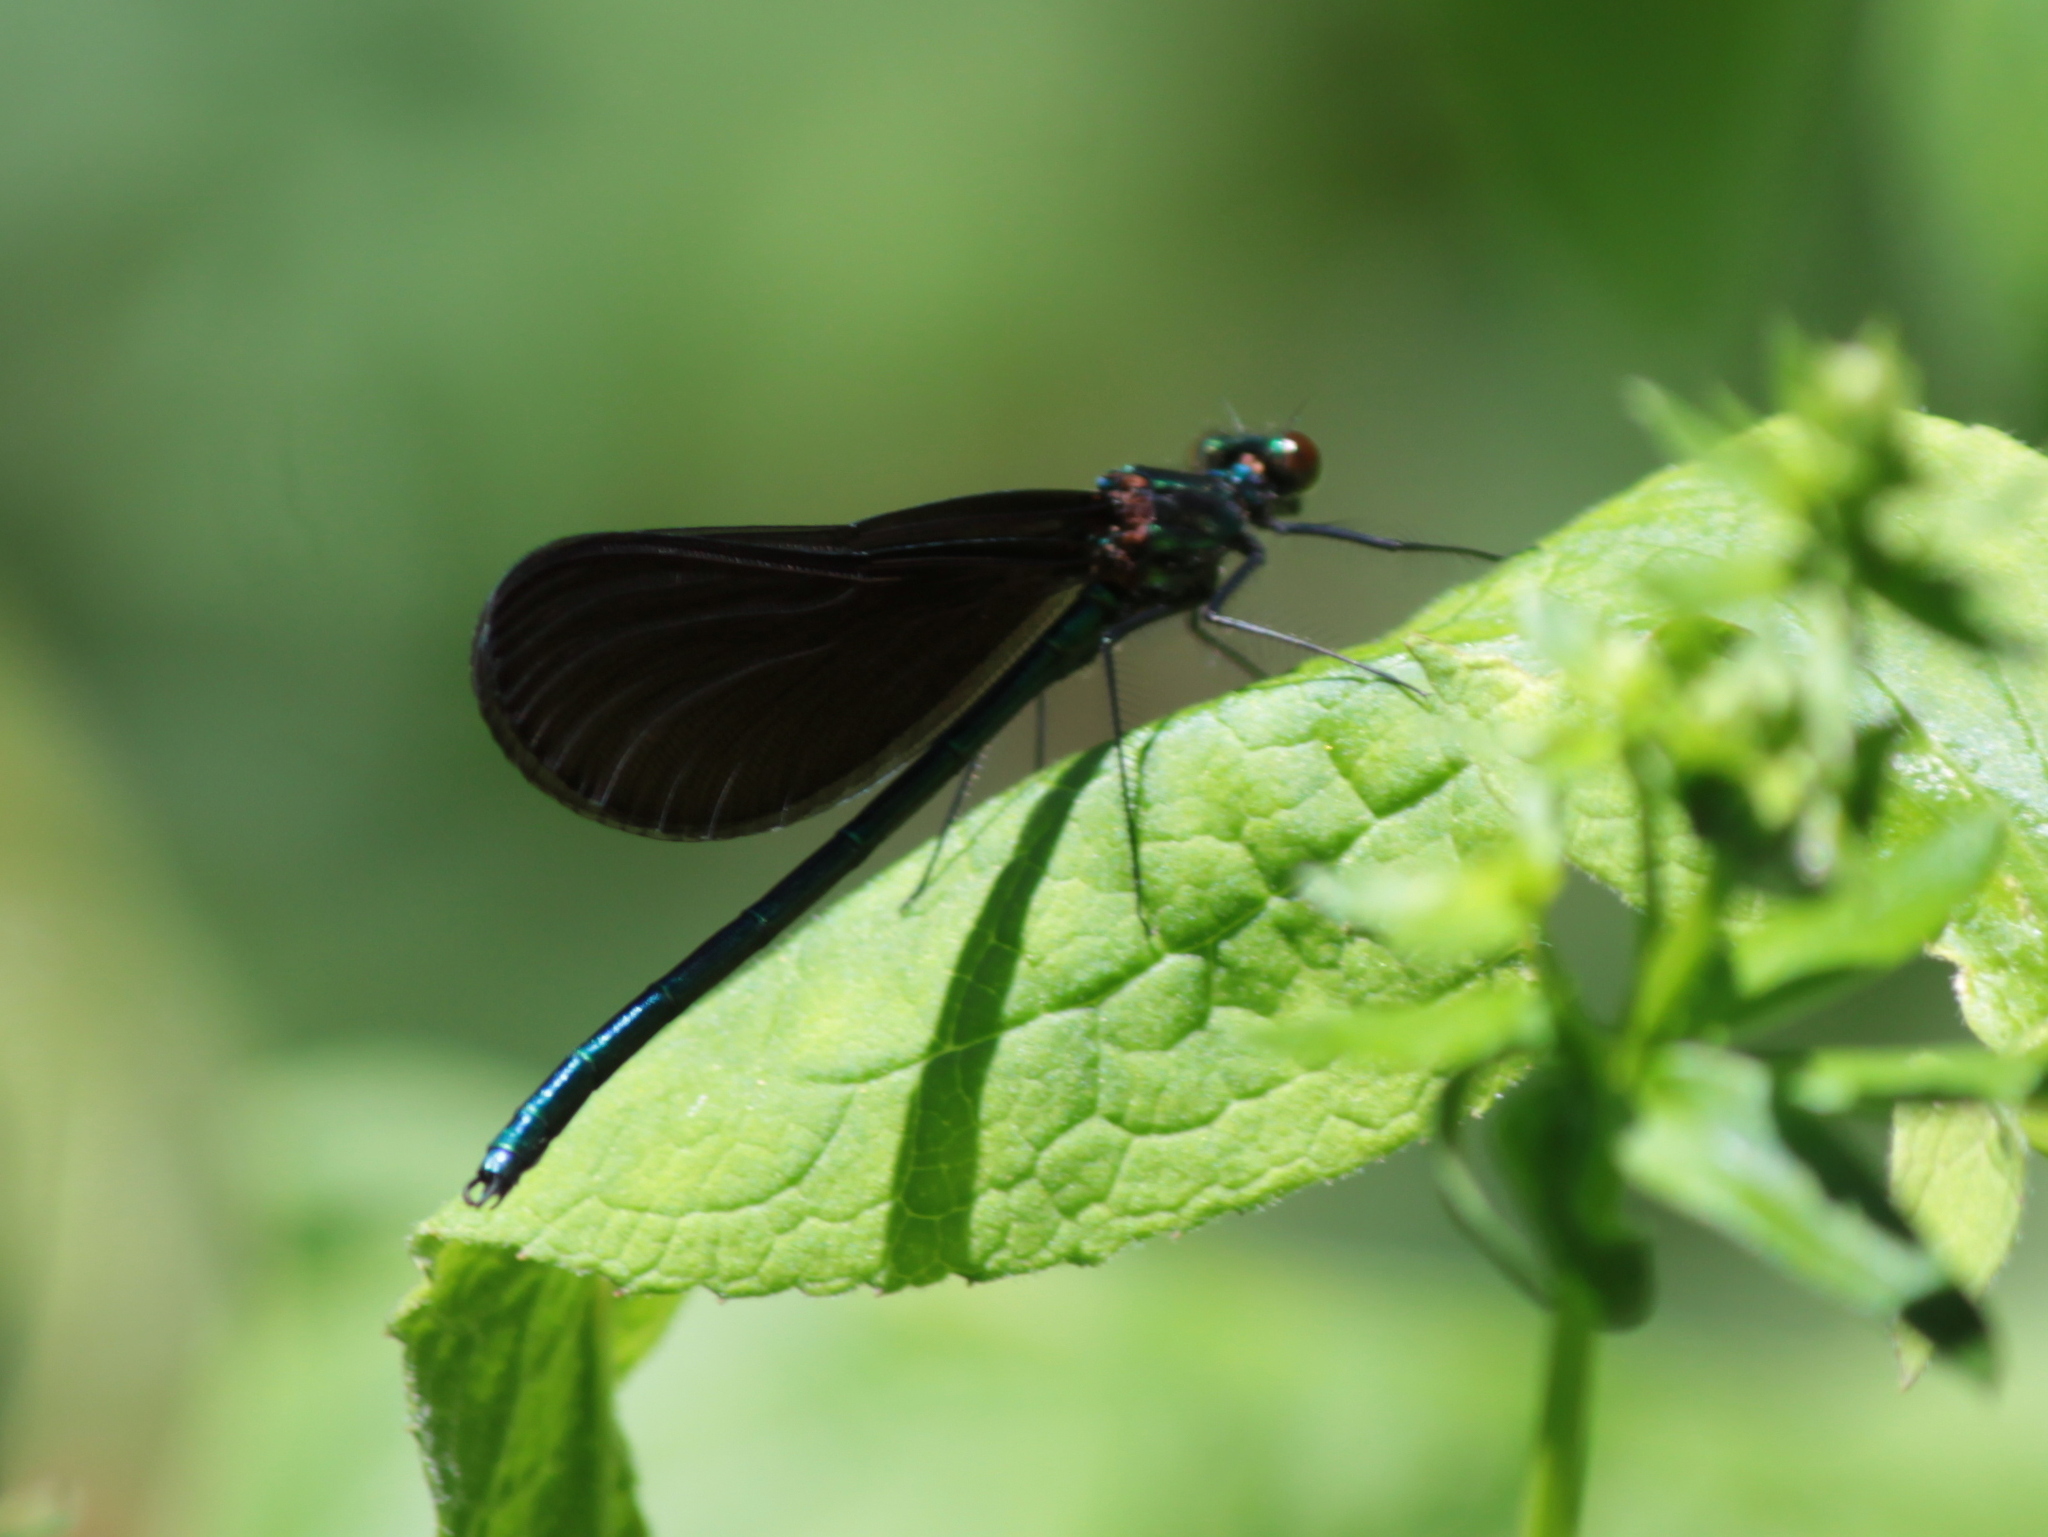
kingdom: Animalia
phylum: Arthropoda
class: Insecta
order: Odonata
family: Calopterygidae
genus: Calopteryx
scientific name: Calopteryx maculata
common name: Ebony jewelwing
